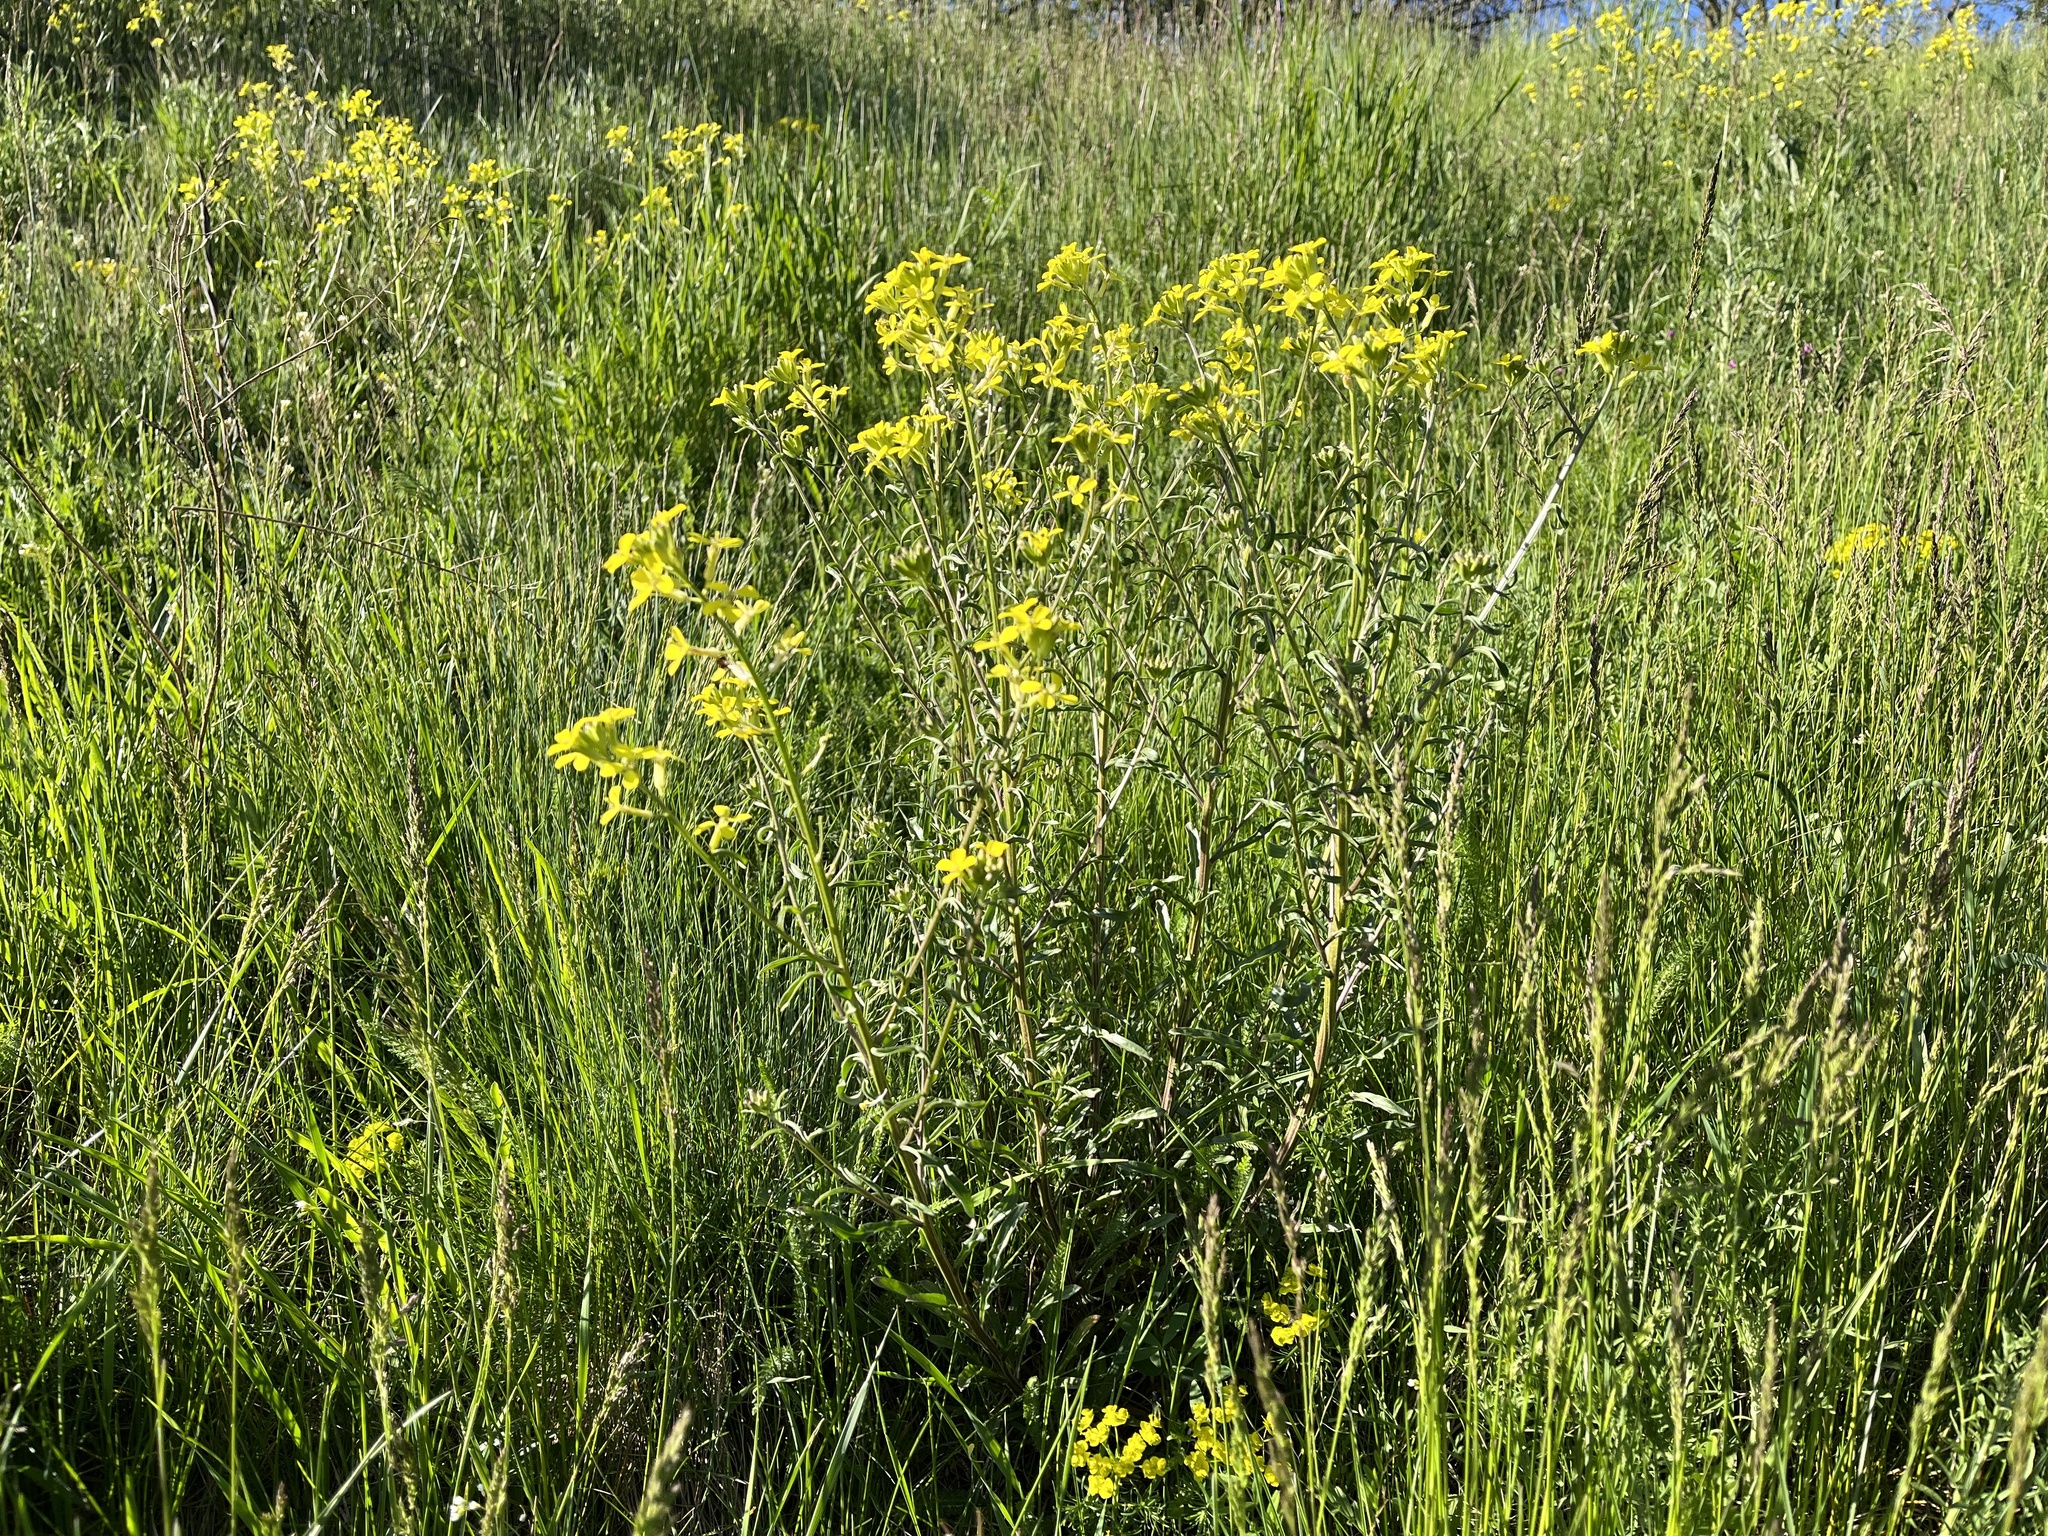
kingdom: Plantae
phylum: Tracheophyta
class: Magnoliopsida
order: Brassicales
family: Brassicaceae
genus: Erysimum
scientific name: Erysimum crepidifolium
